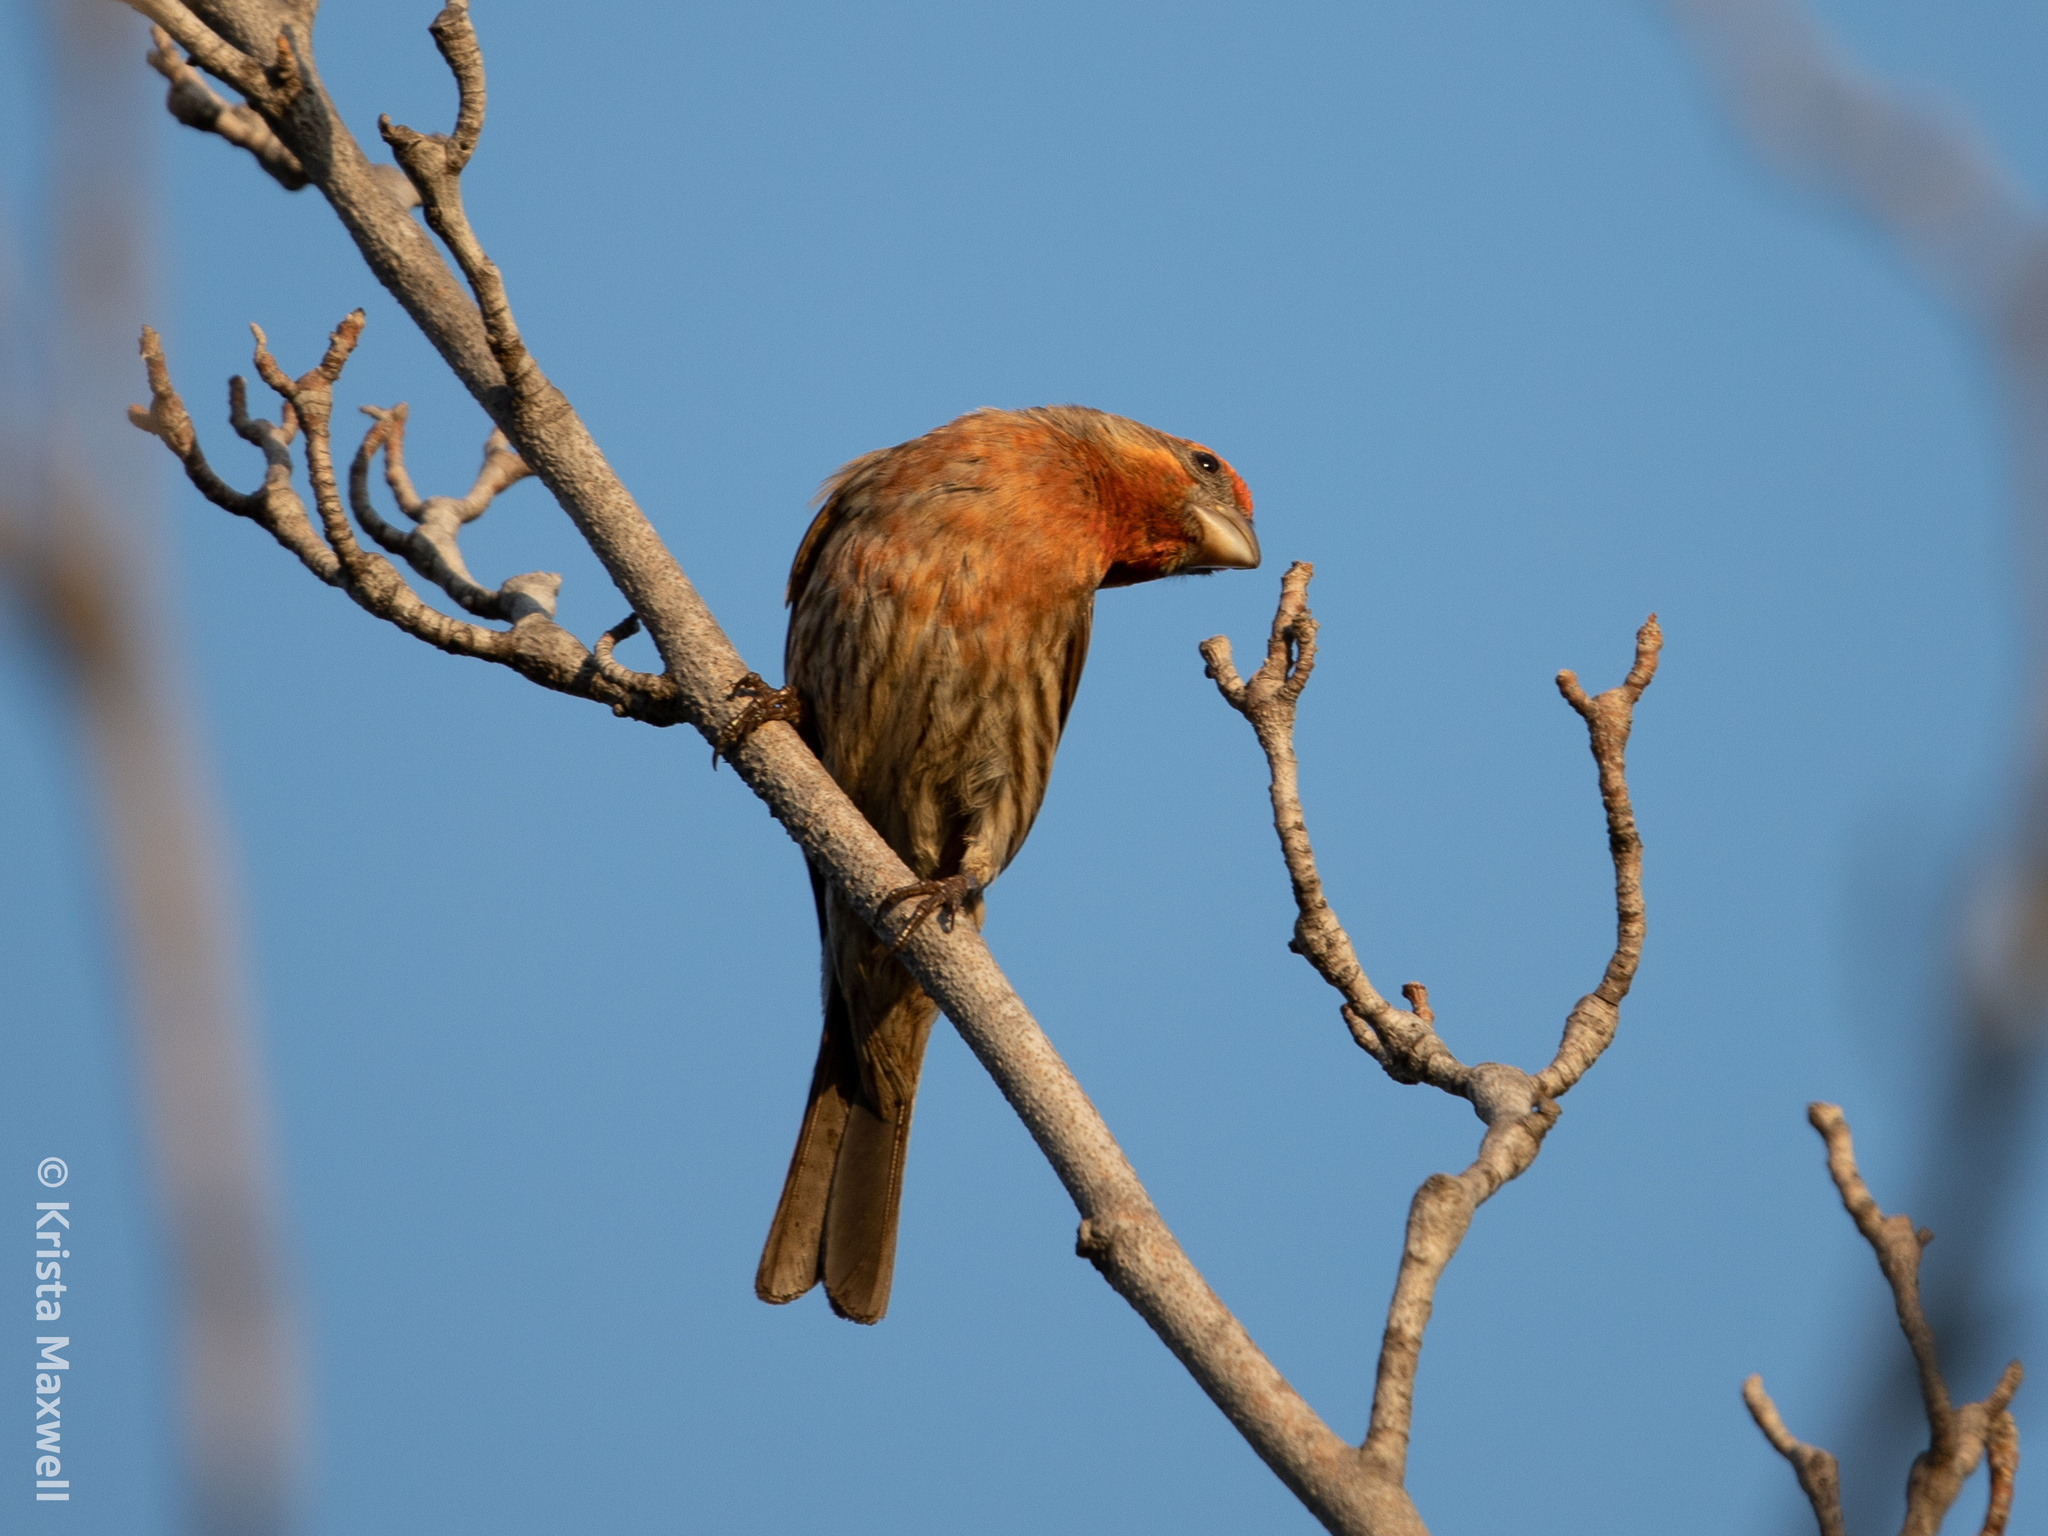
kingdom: Animalia
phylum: Chordata
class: Aves
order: Passeriformes
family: Fringillidae
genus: Haemorhous
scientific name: Haemorhous mexicanus
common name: House finch
